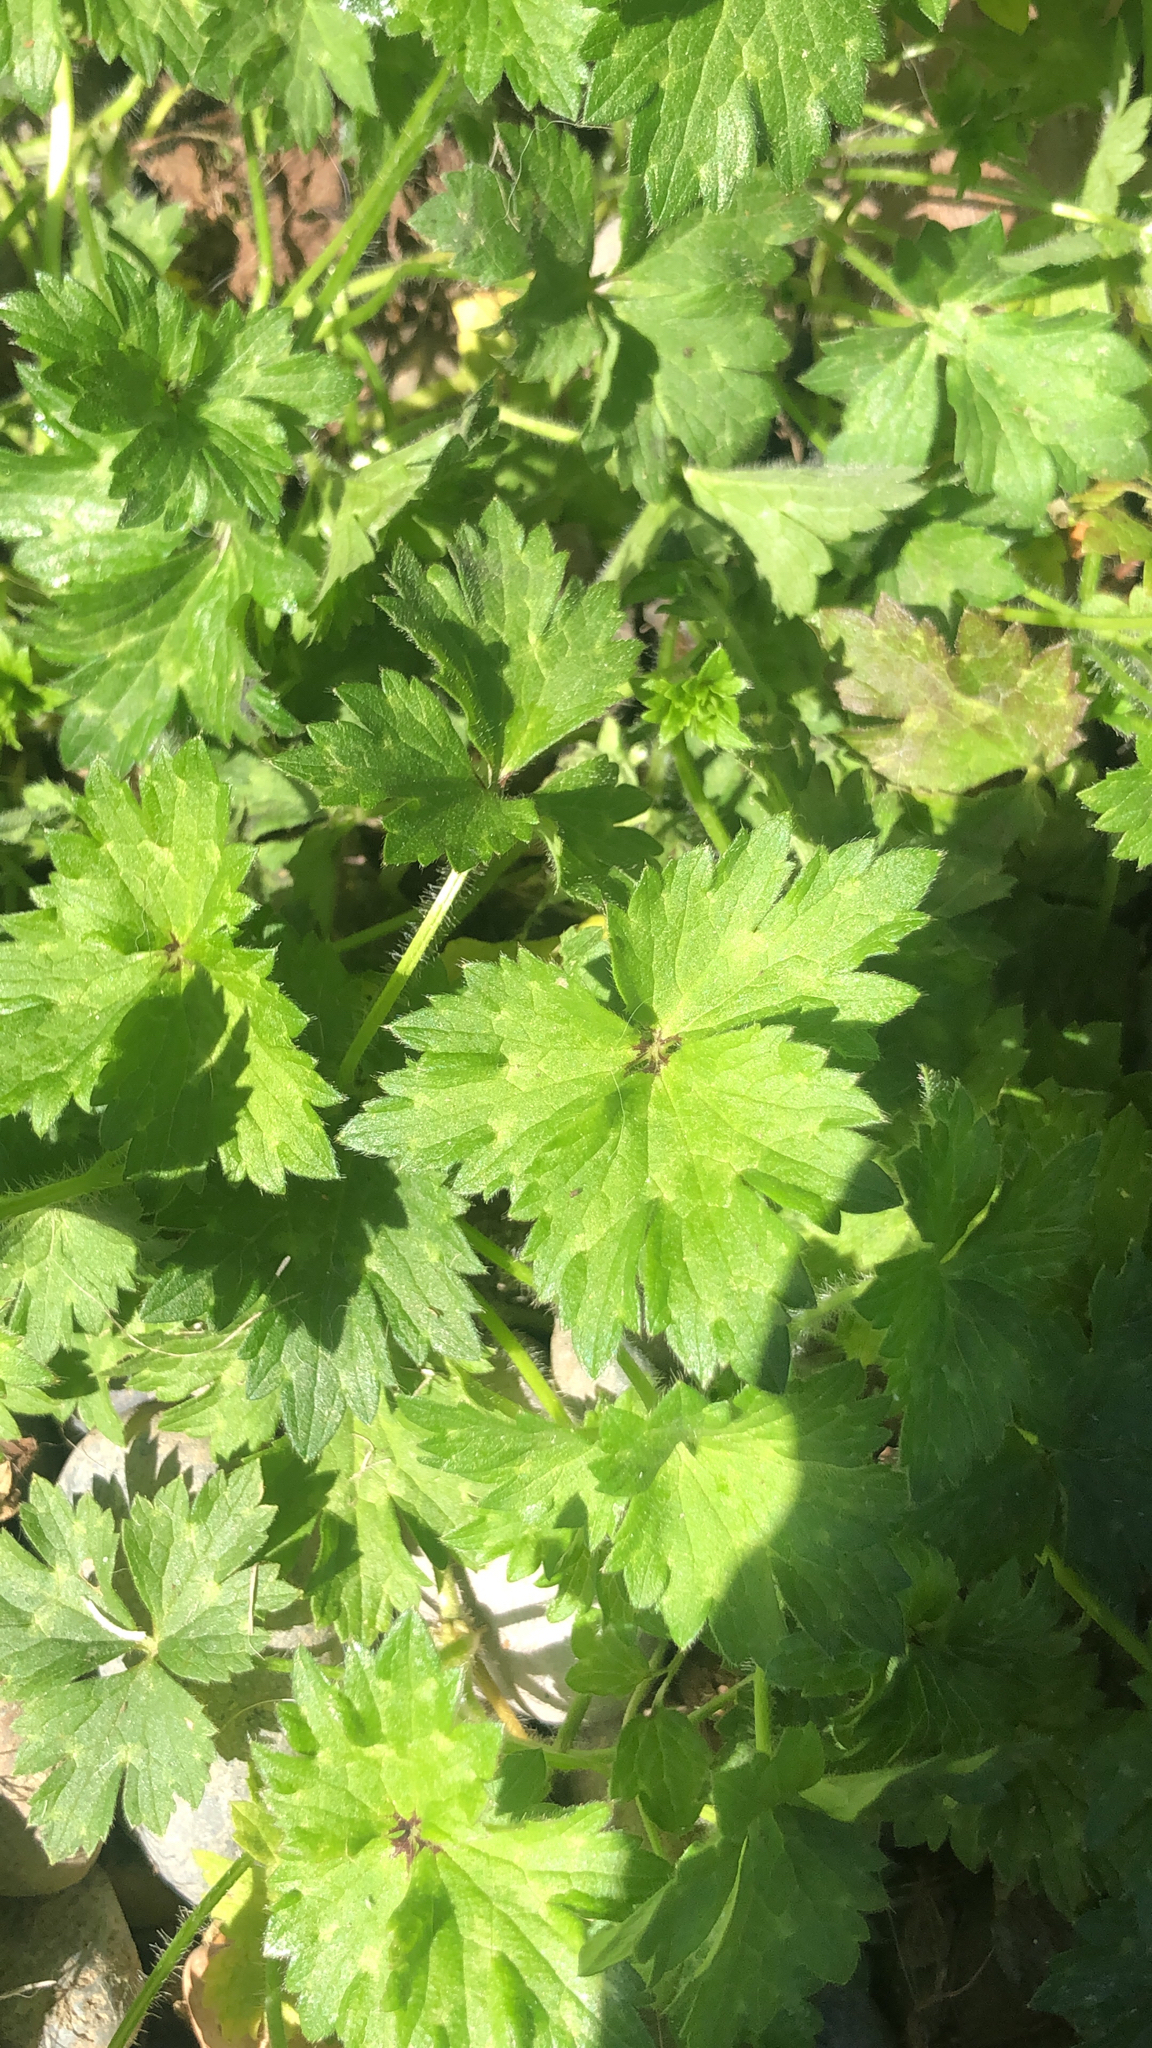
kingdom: Plantae
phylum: Tracheophyta
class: Magnoliopsida
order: Ranunculales
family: Ranunculaceae
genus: Ranunculus
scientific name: Ranunculus repens
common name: Creeping buttercup
